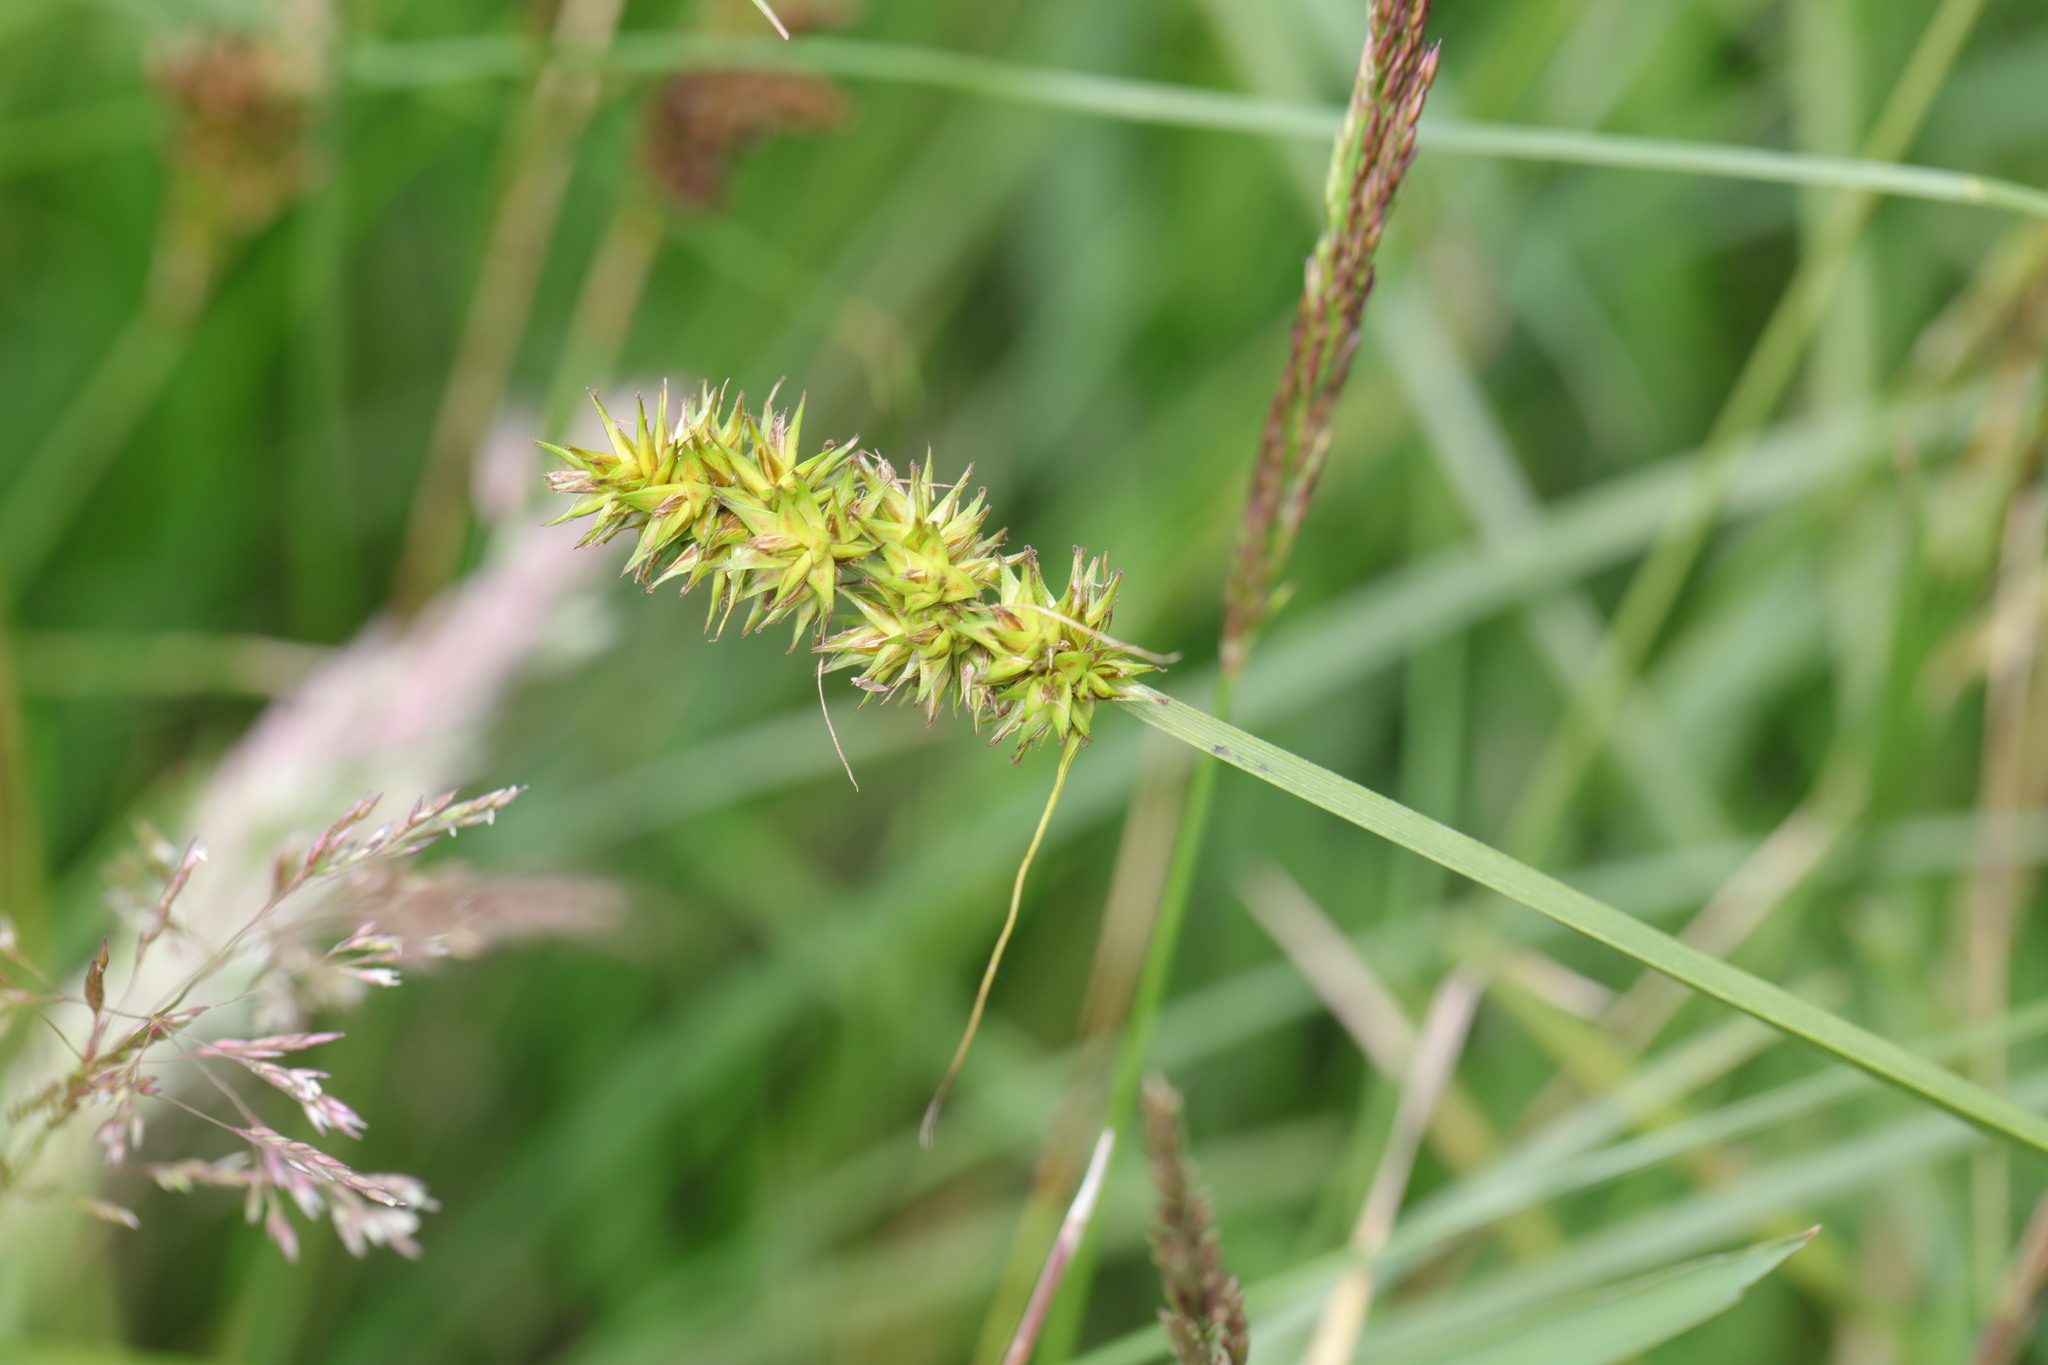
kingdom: Plantae
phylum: Tracheophyta
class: Liliopsida
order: Poales
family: Cyperaceae
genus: Carex
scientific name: Carex otrubae
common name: False fox-sedge
